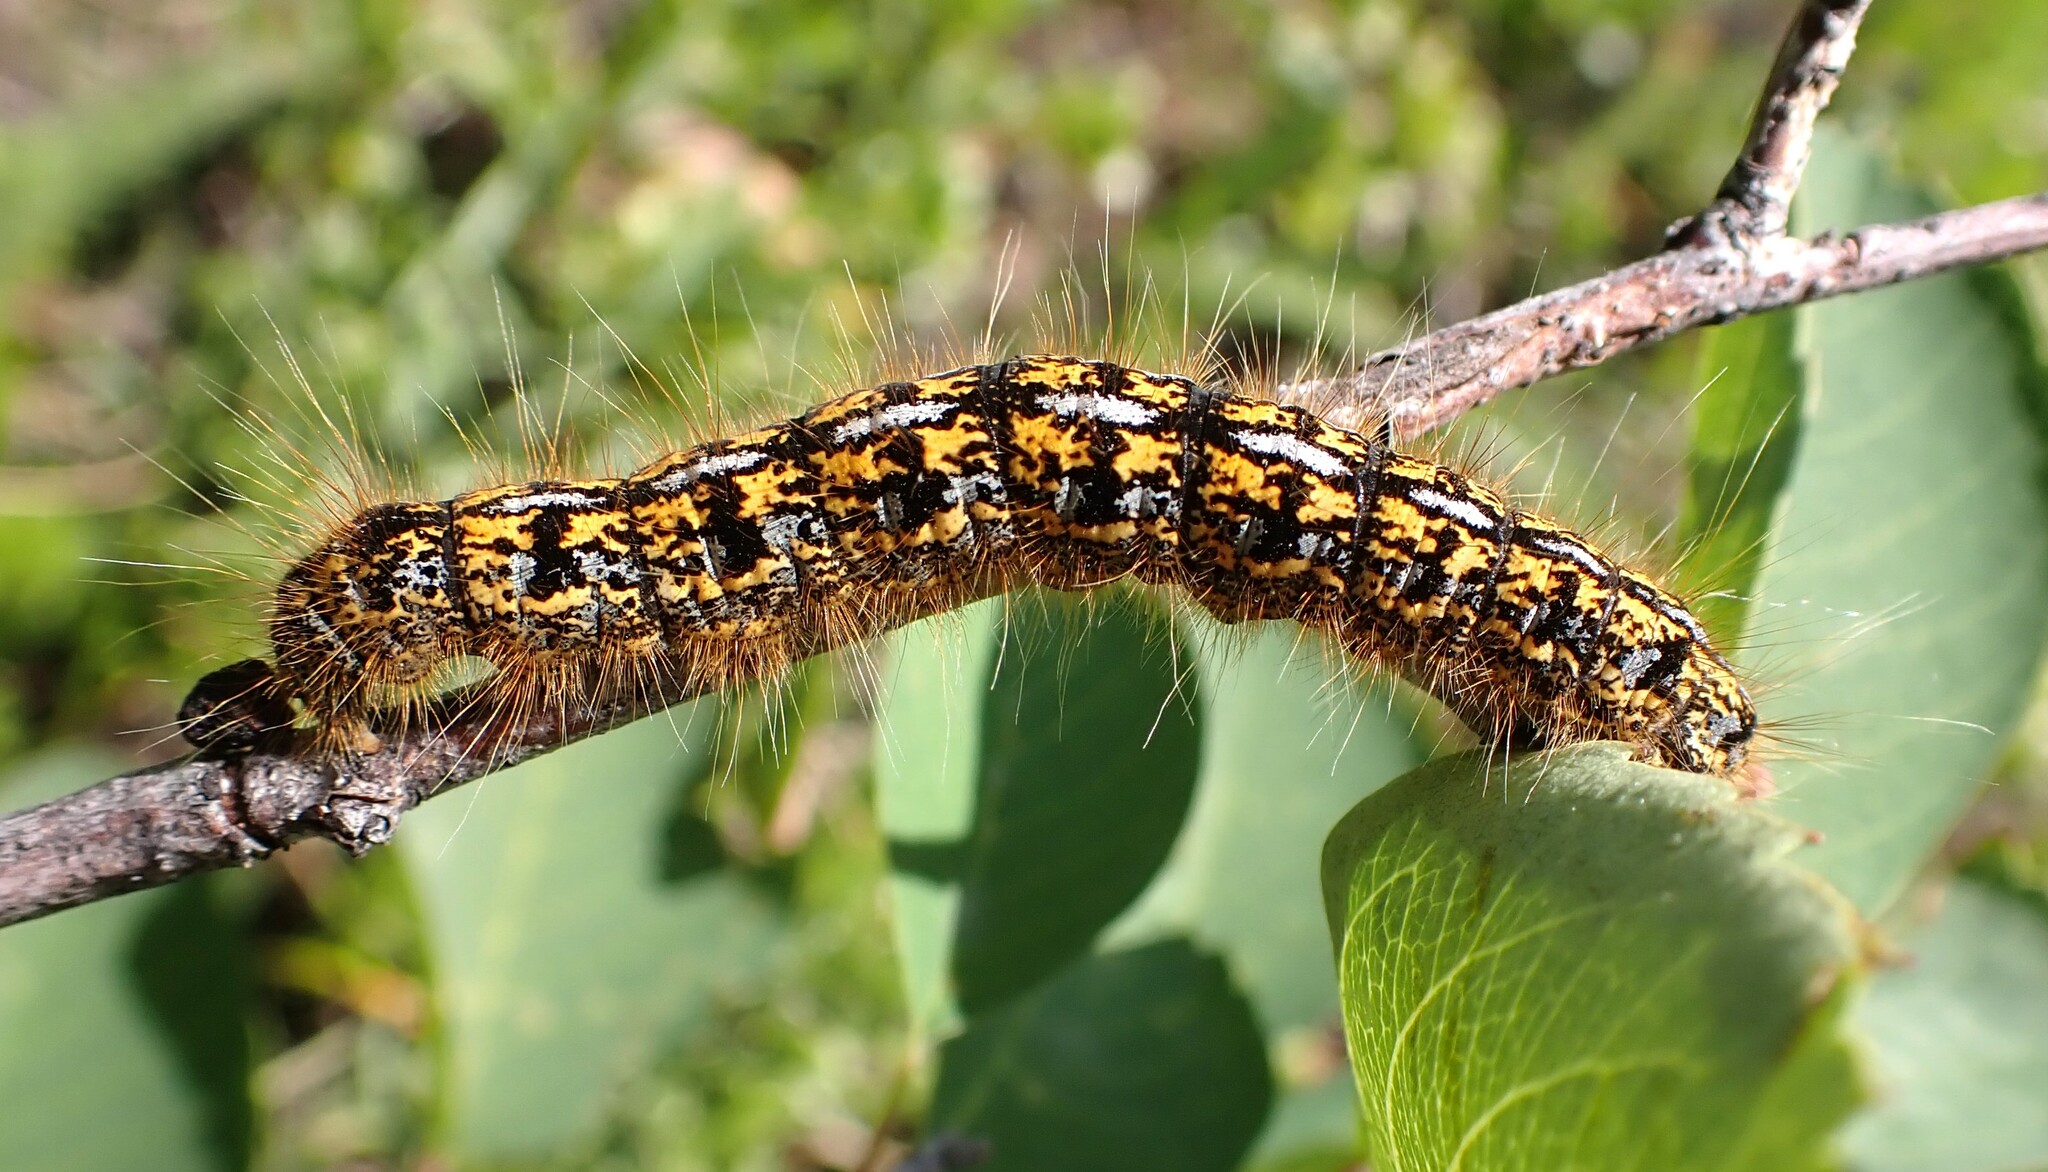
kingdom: Animalia
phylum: Arthropoda
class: Insecta
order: Lepidoptera
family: Lasiocampidae
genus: Malacosoma
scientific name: Malacosoma californica
